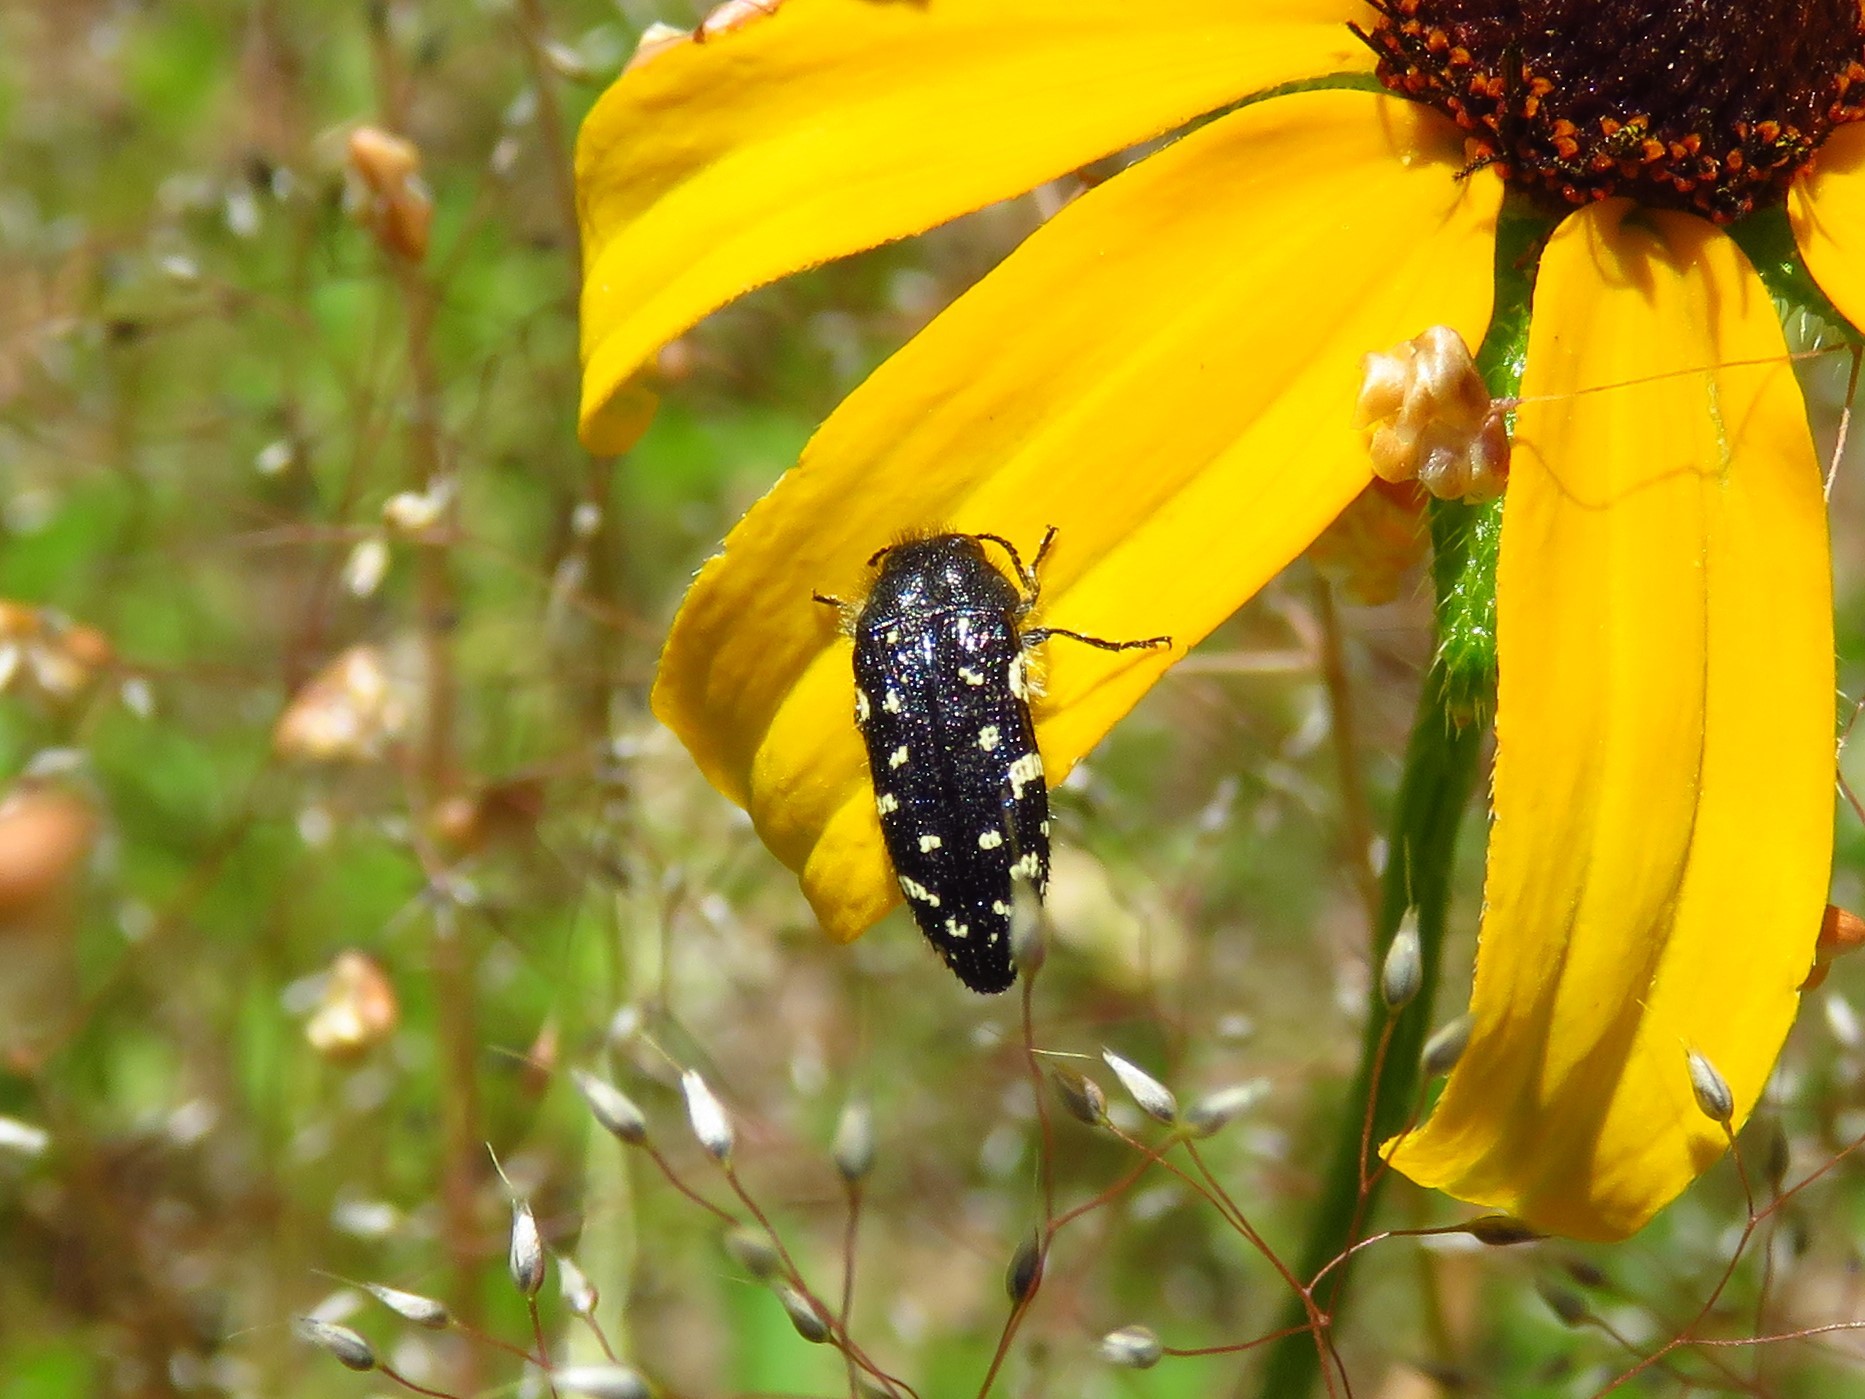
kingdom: Animalia
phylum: Arthropoda
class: Insecta
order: Coleoptera
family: Buprestidae
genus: Acmaeodera
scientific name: Acmaeodera ornata
